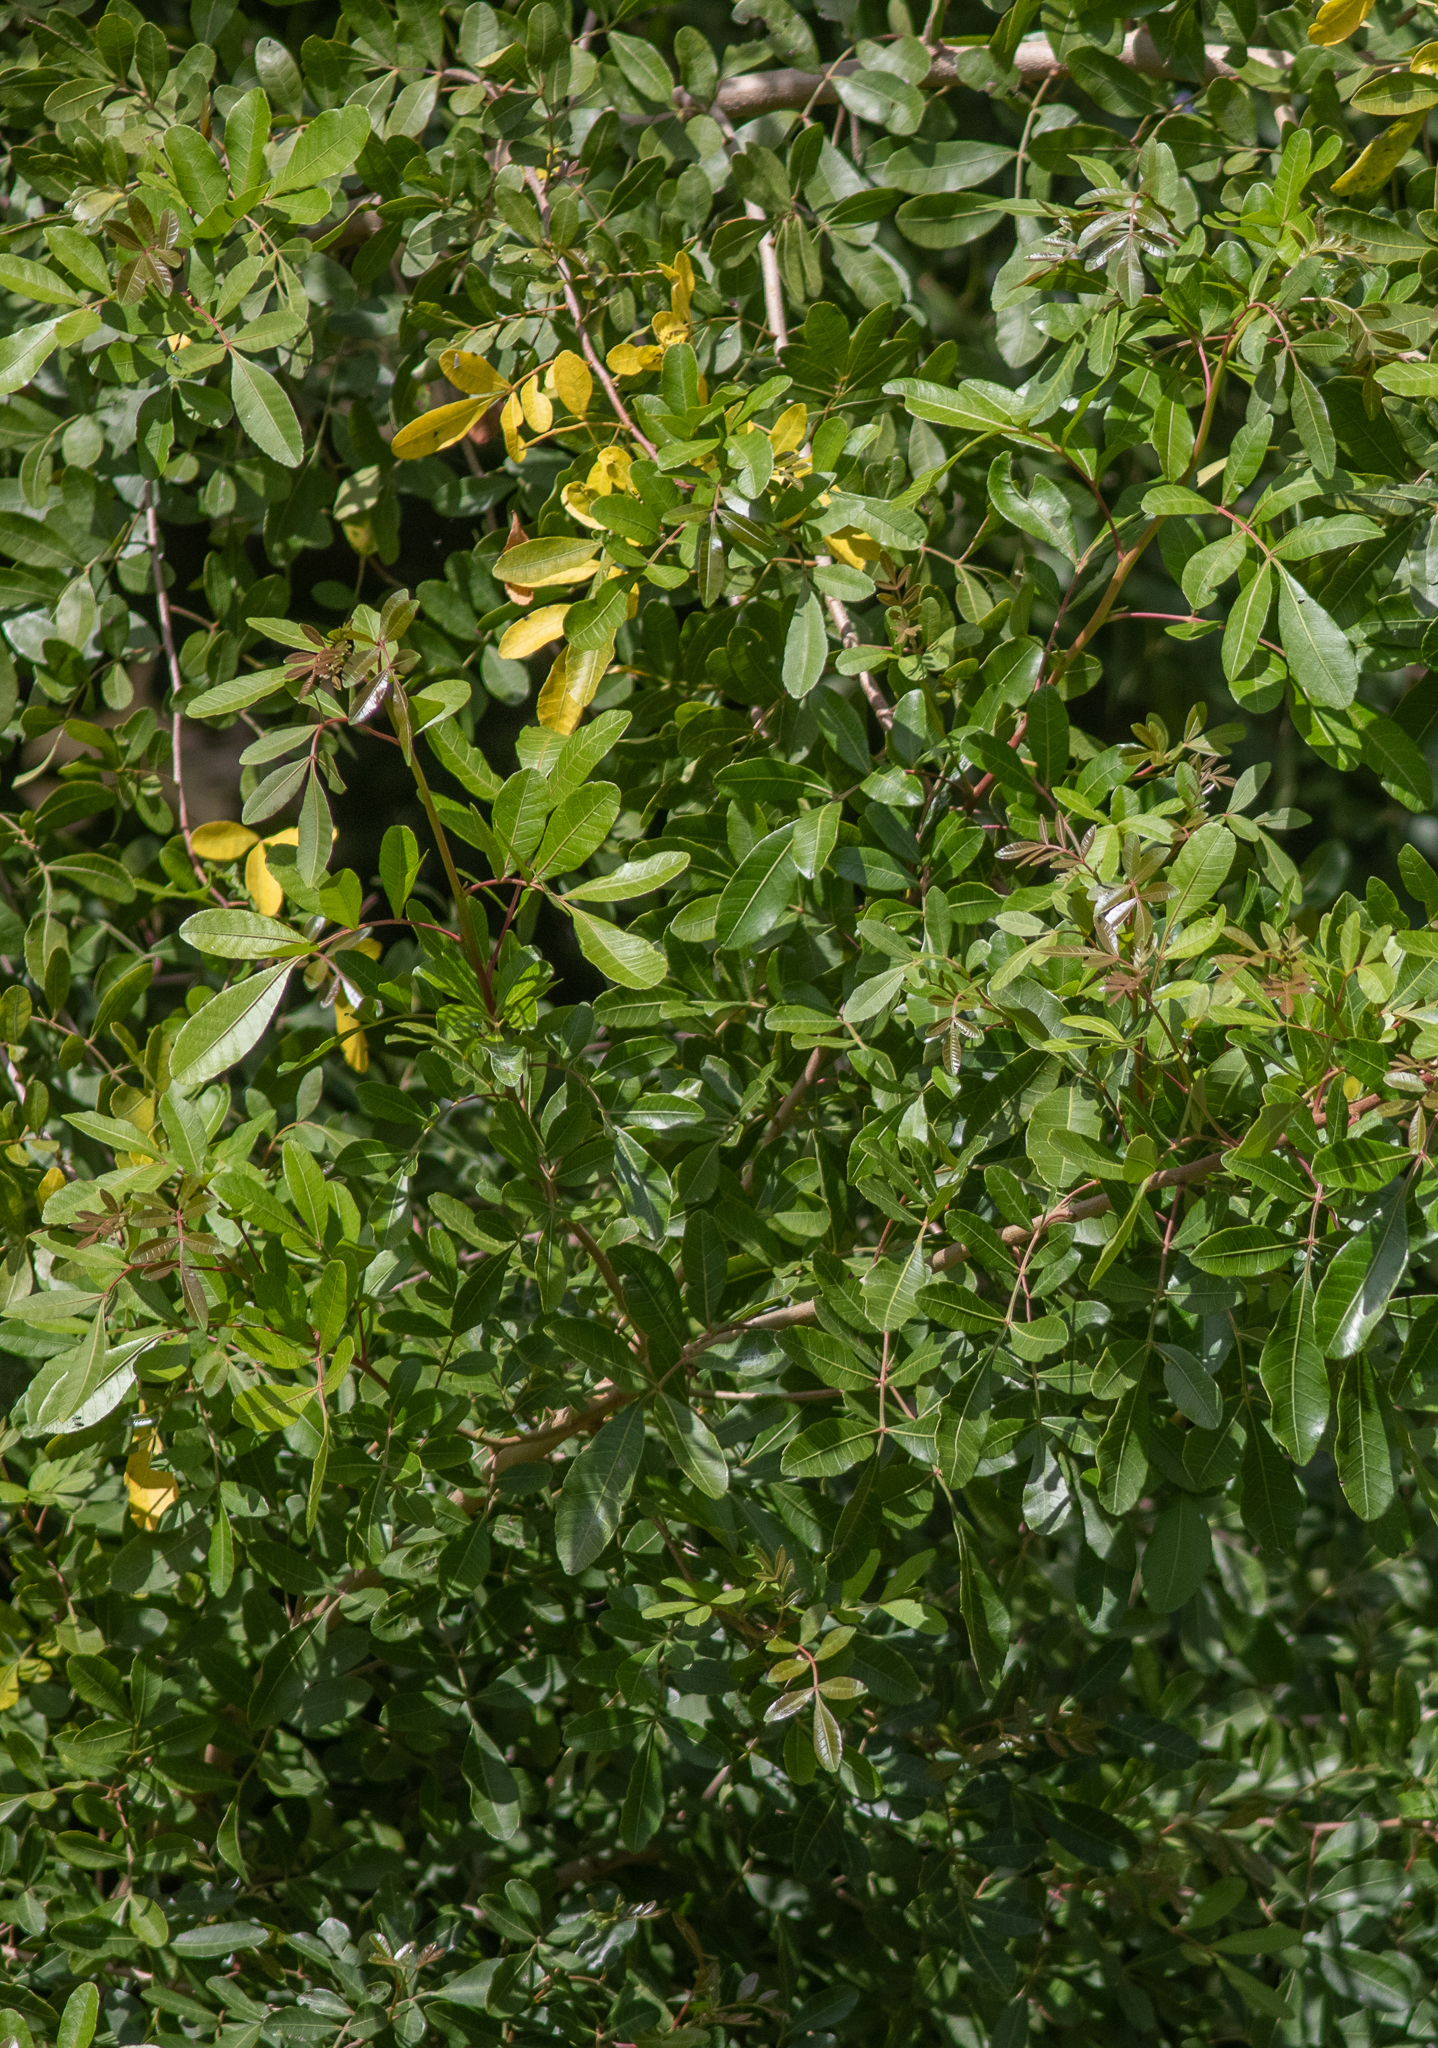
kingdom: Plantae
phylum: Tracheophyta
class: Magnoliopsida
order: Sapindales
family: Anacardiaceae
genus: Schinus
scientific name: Schinus terebinthifolia
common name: Brazilian peppertree
